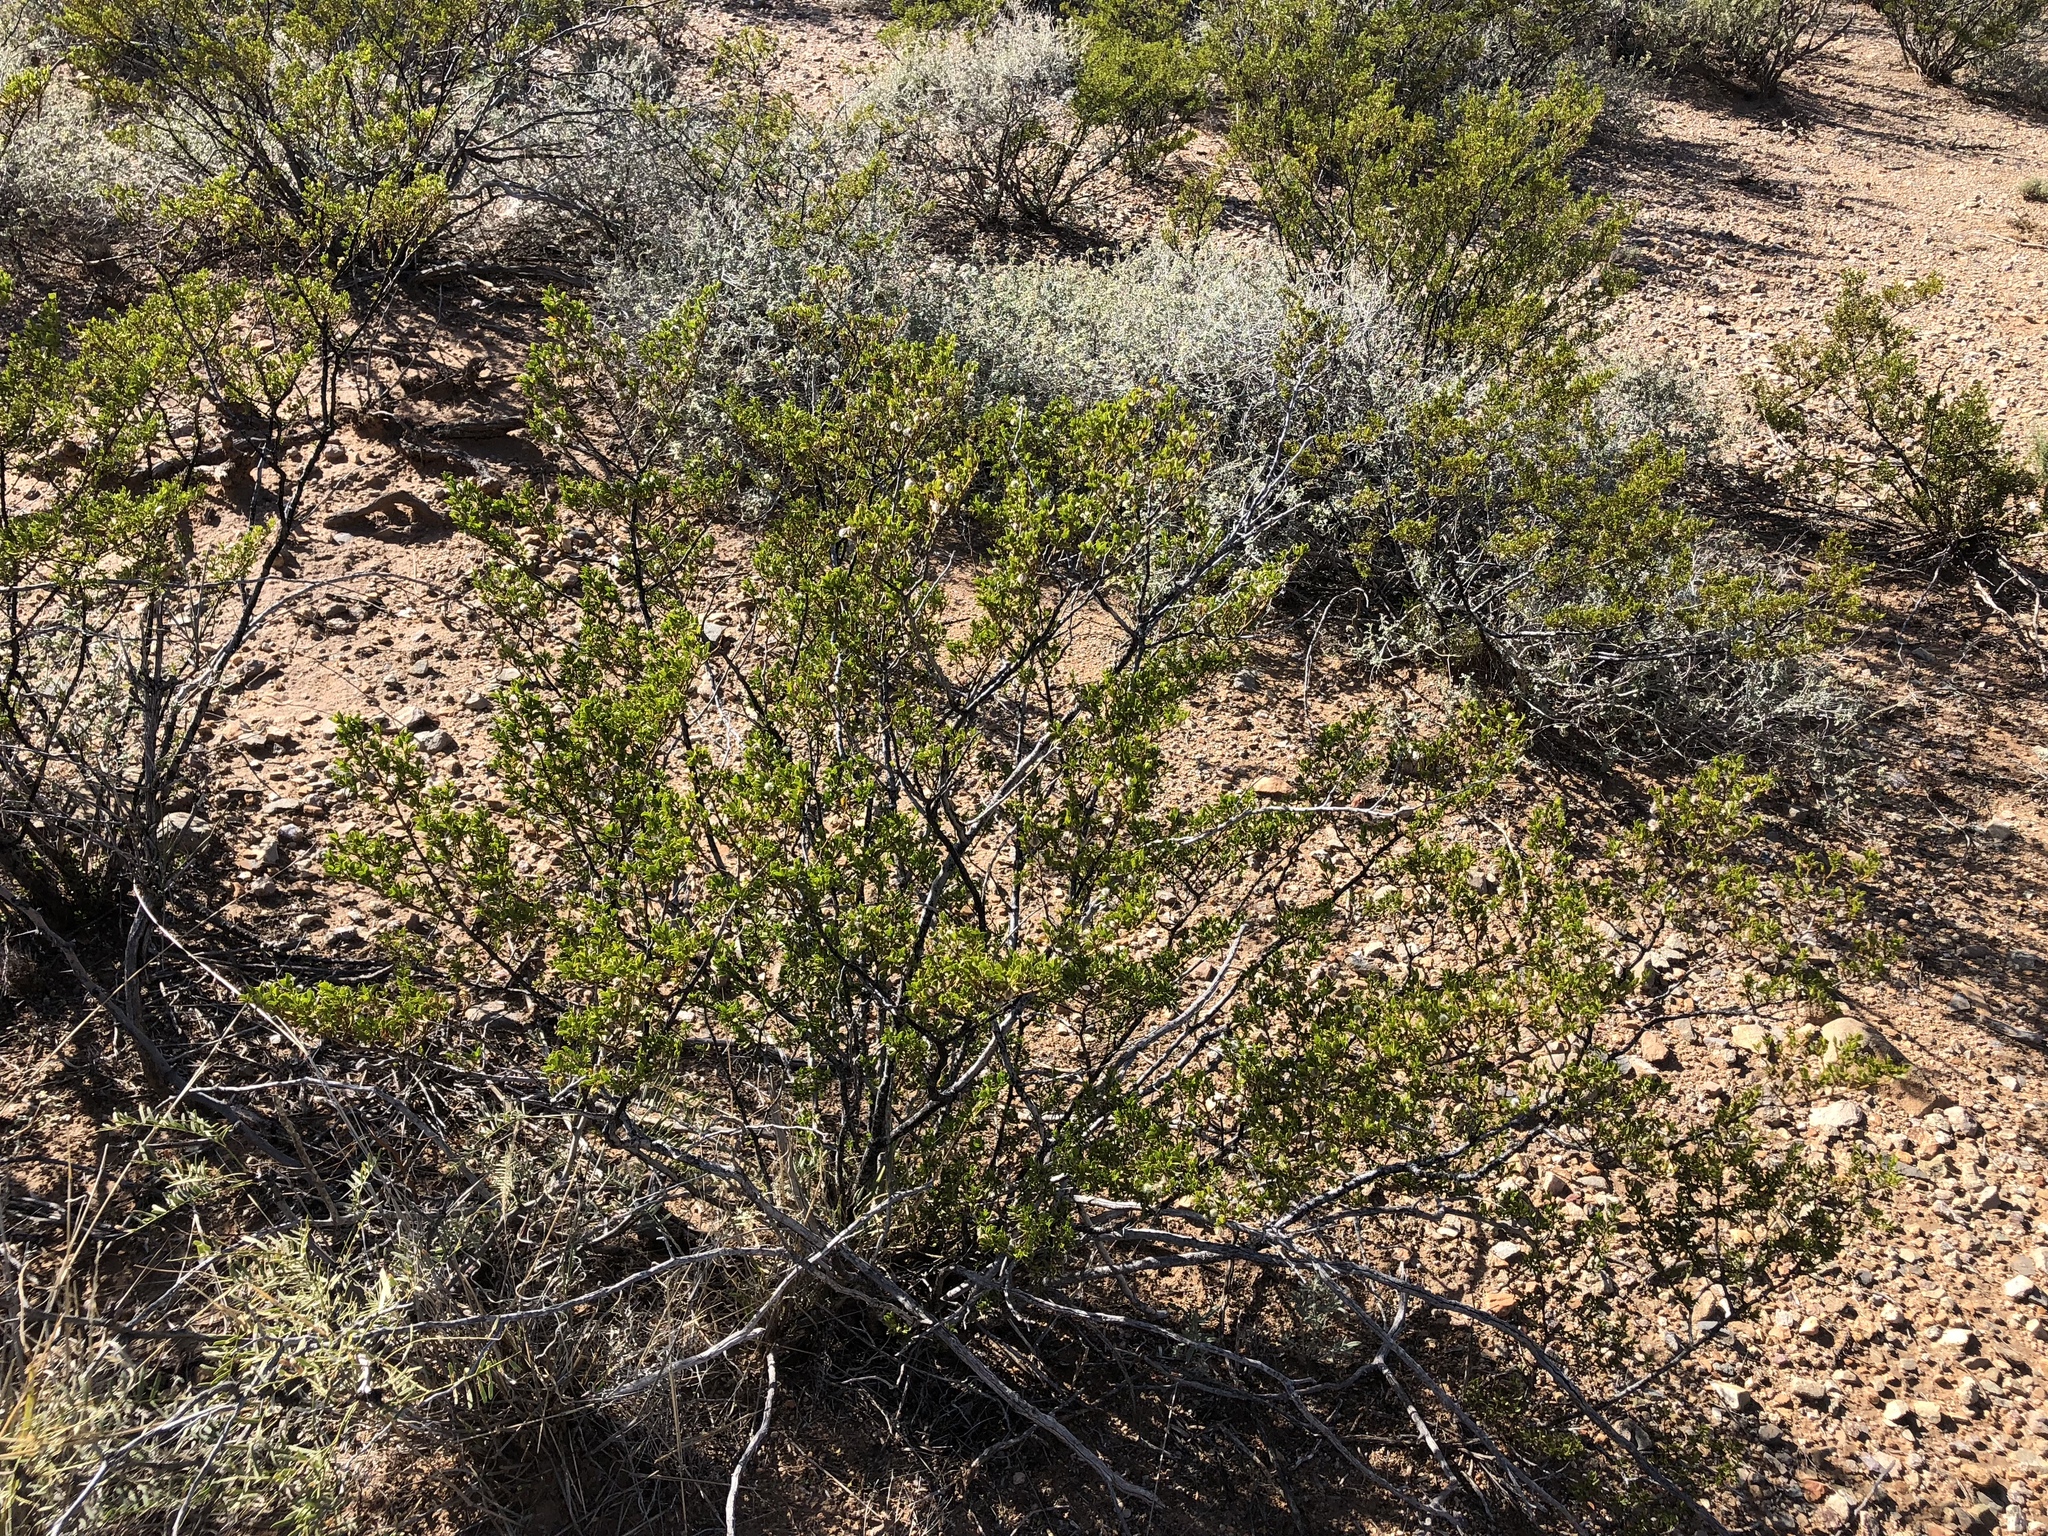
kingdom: Plantae
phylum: Tracheophyta
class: Magnoliopsida
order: Zygophyllales
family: Zygophyllaceae
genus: Larrea
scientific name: Larrea tridentata
